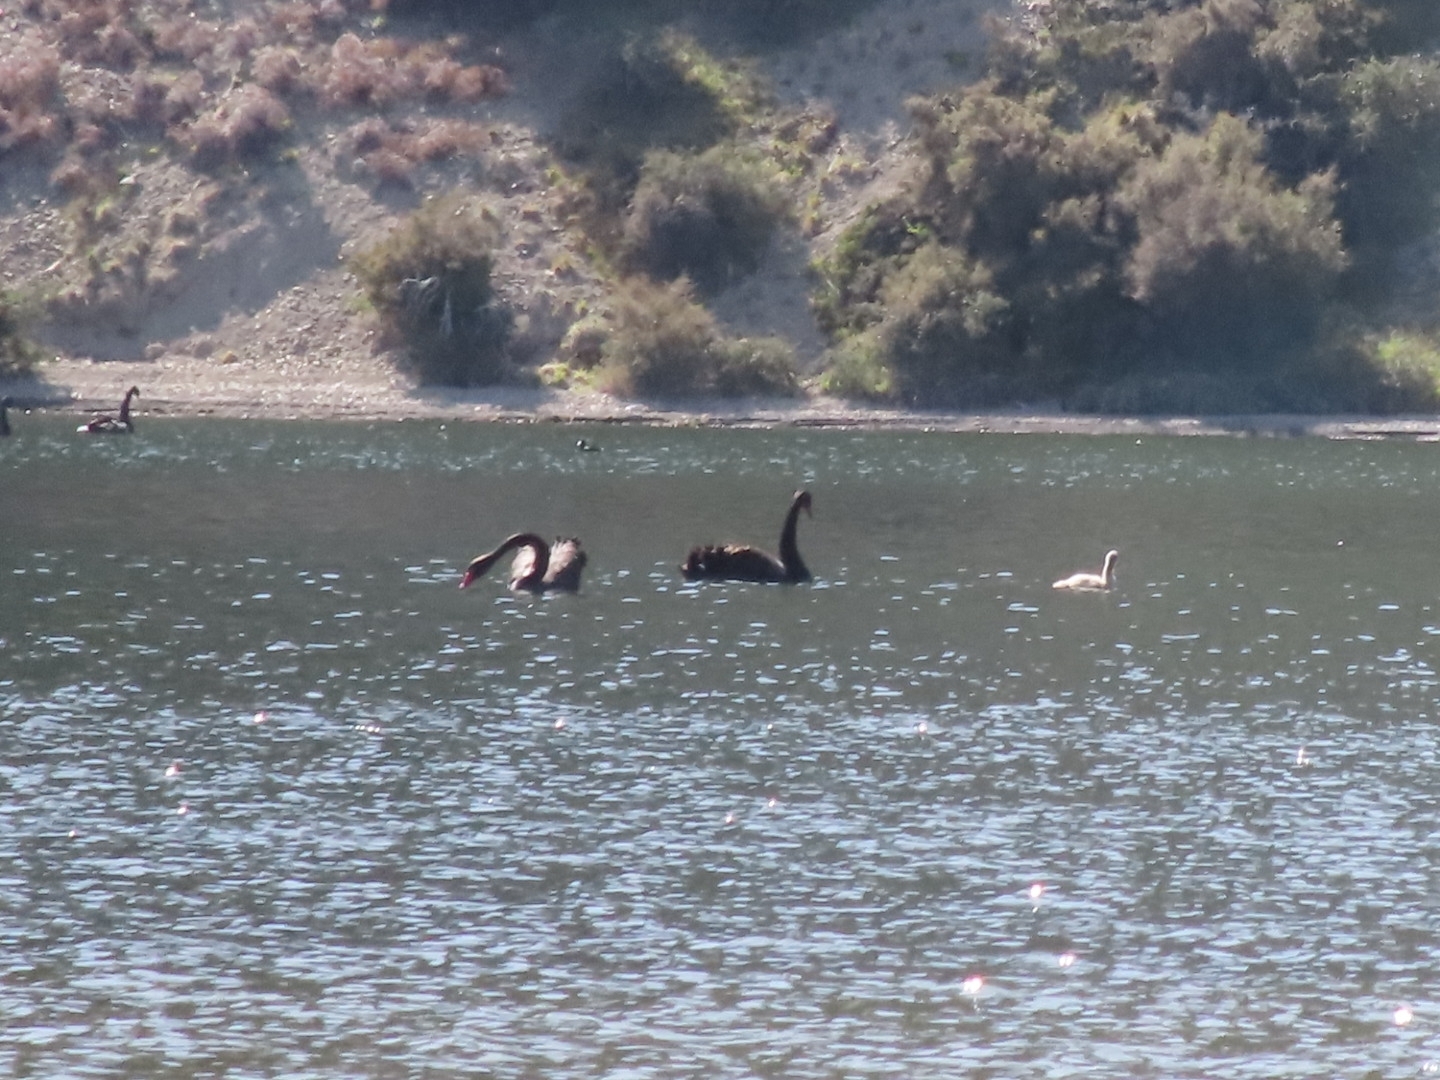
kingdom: Animalia
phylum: Chordata
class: Aves
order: Anseriformes
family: Anatidae
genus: Cygnus
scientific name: Cygnus atratus
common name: Black swan
